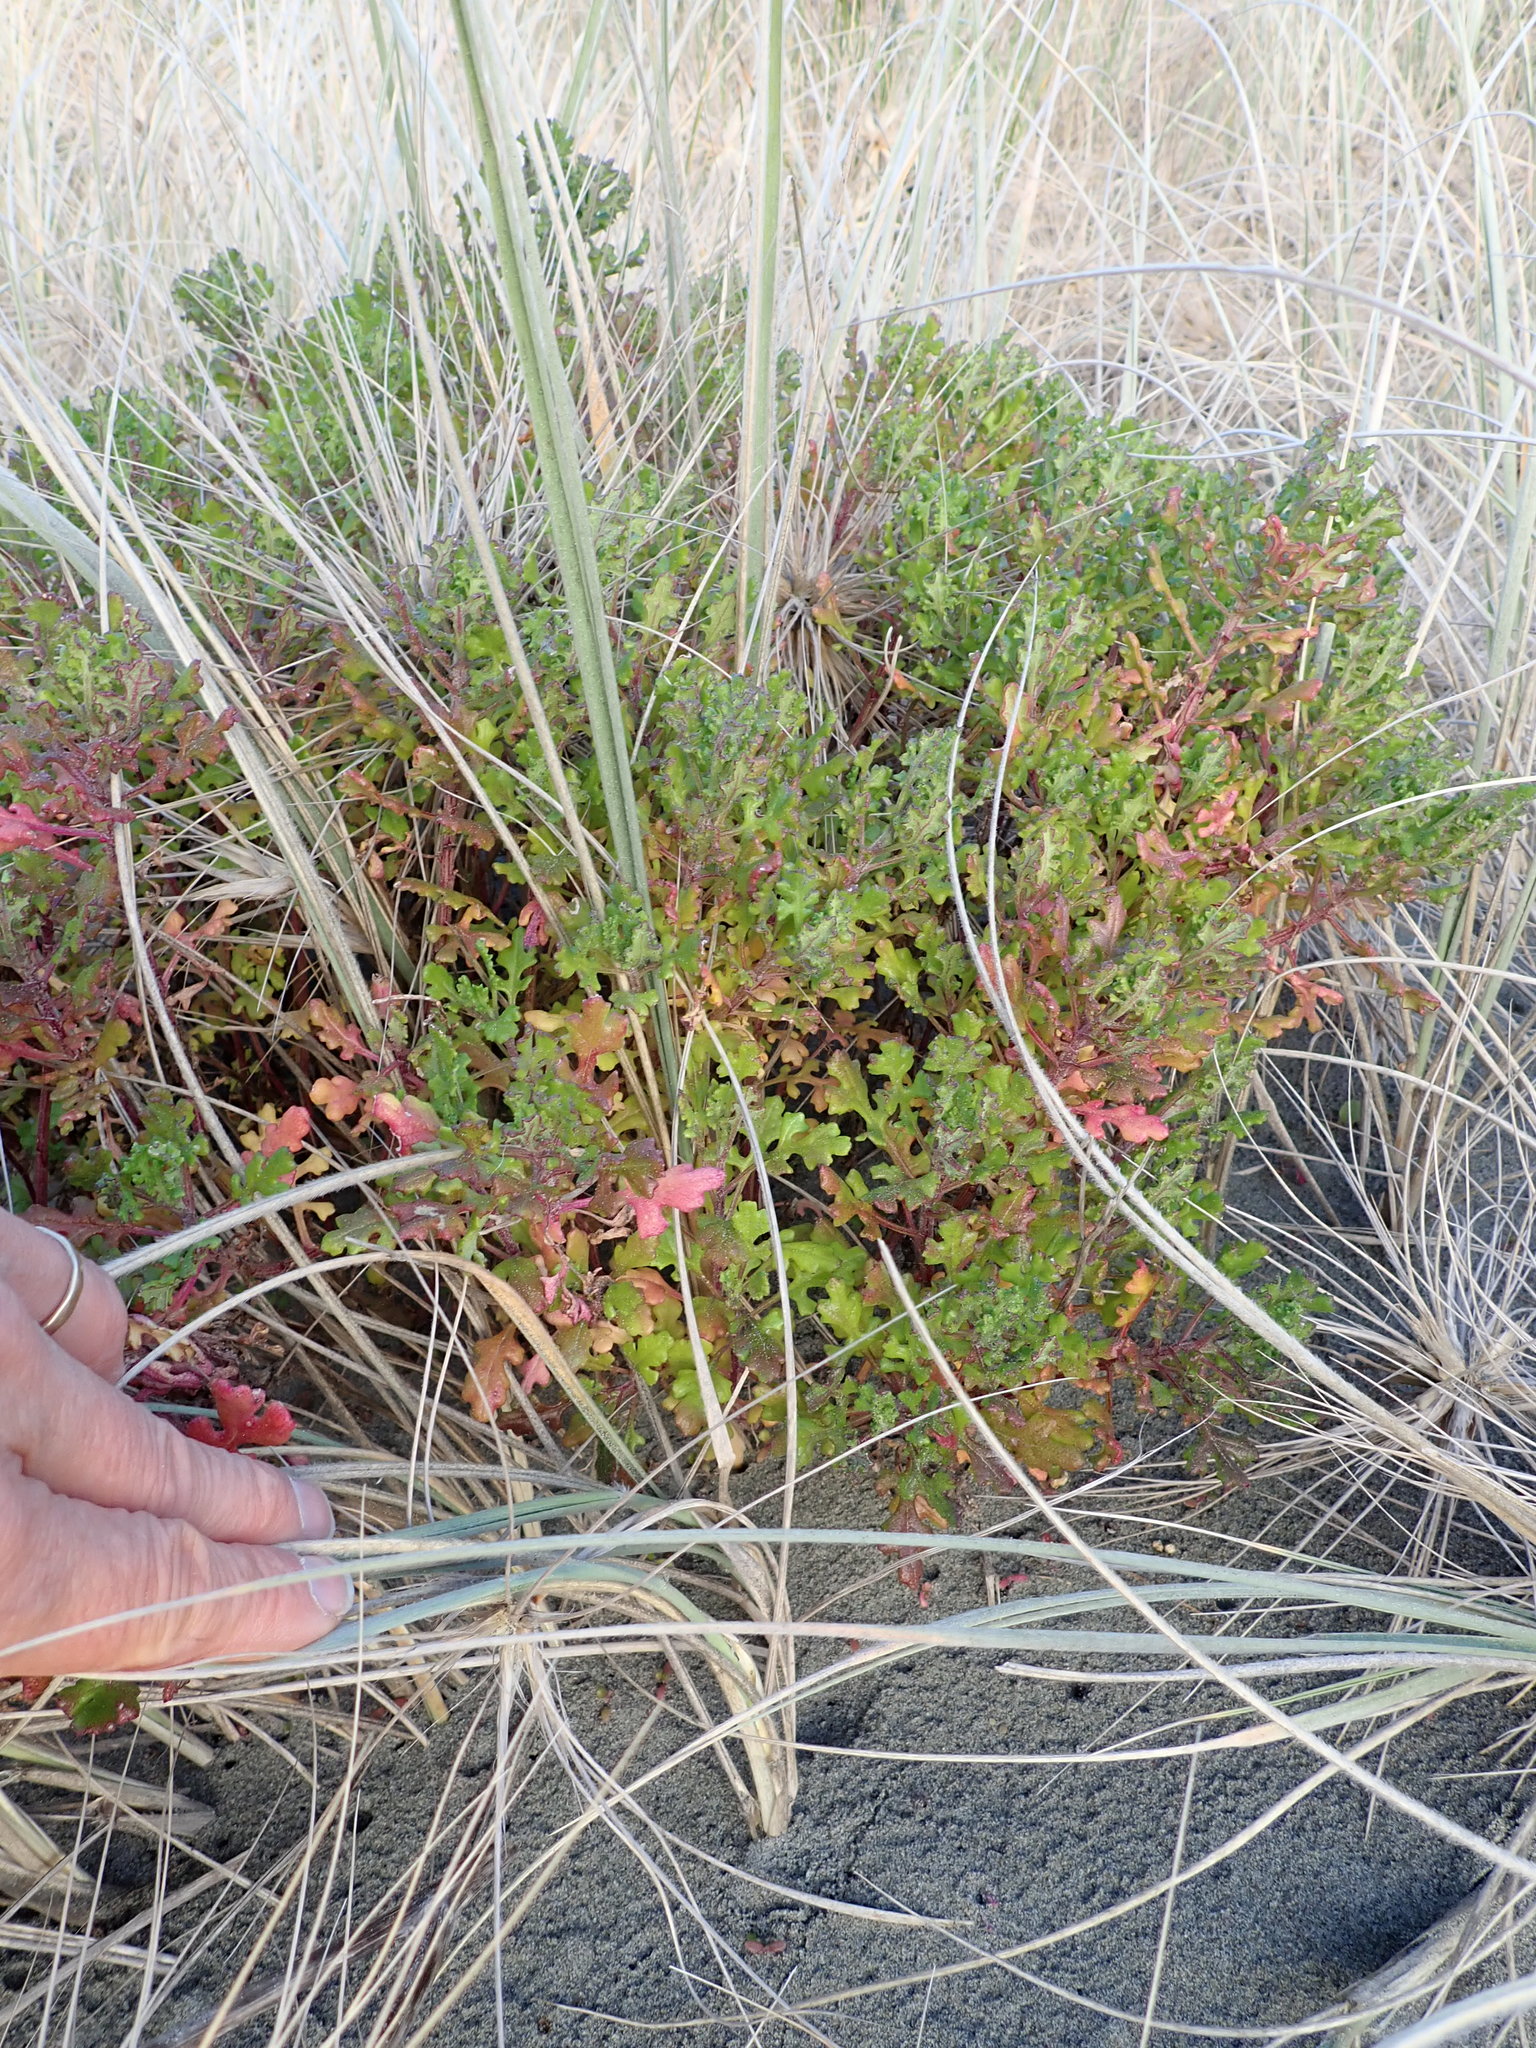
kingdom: Plantae
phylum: Tracheophyta
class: Magnoliopsida
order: Asterales
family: Asteraceae
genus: Senecio
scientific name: Senecio elegans
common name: Purple groundsel
